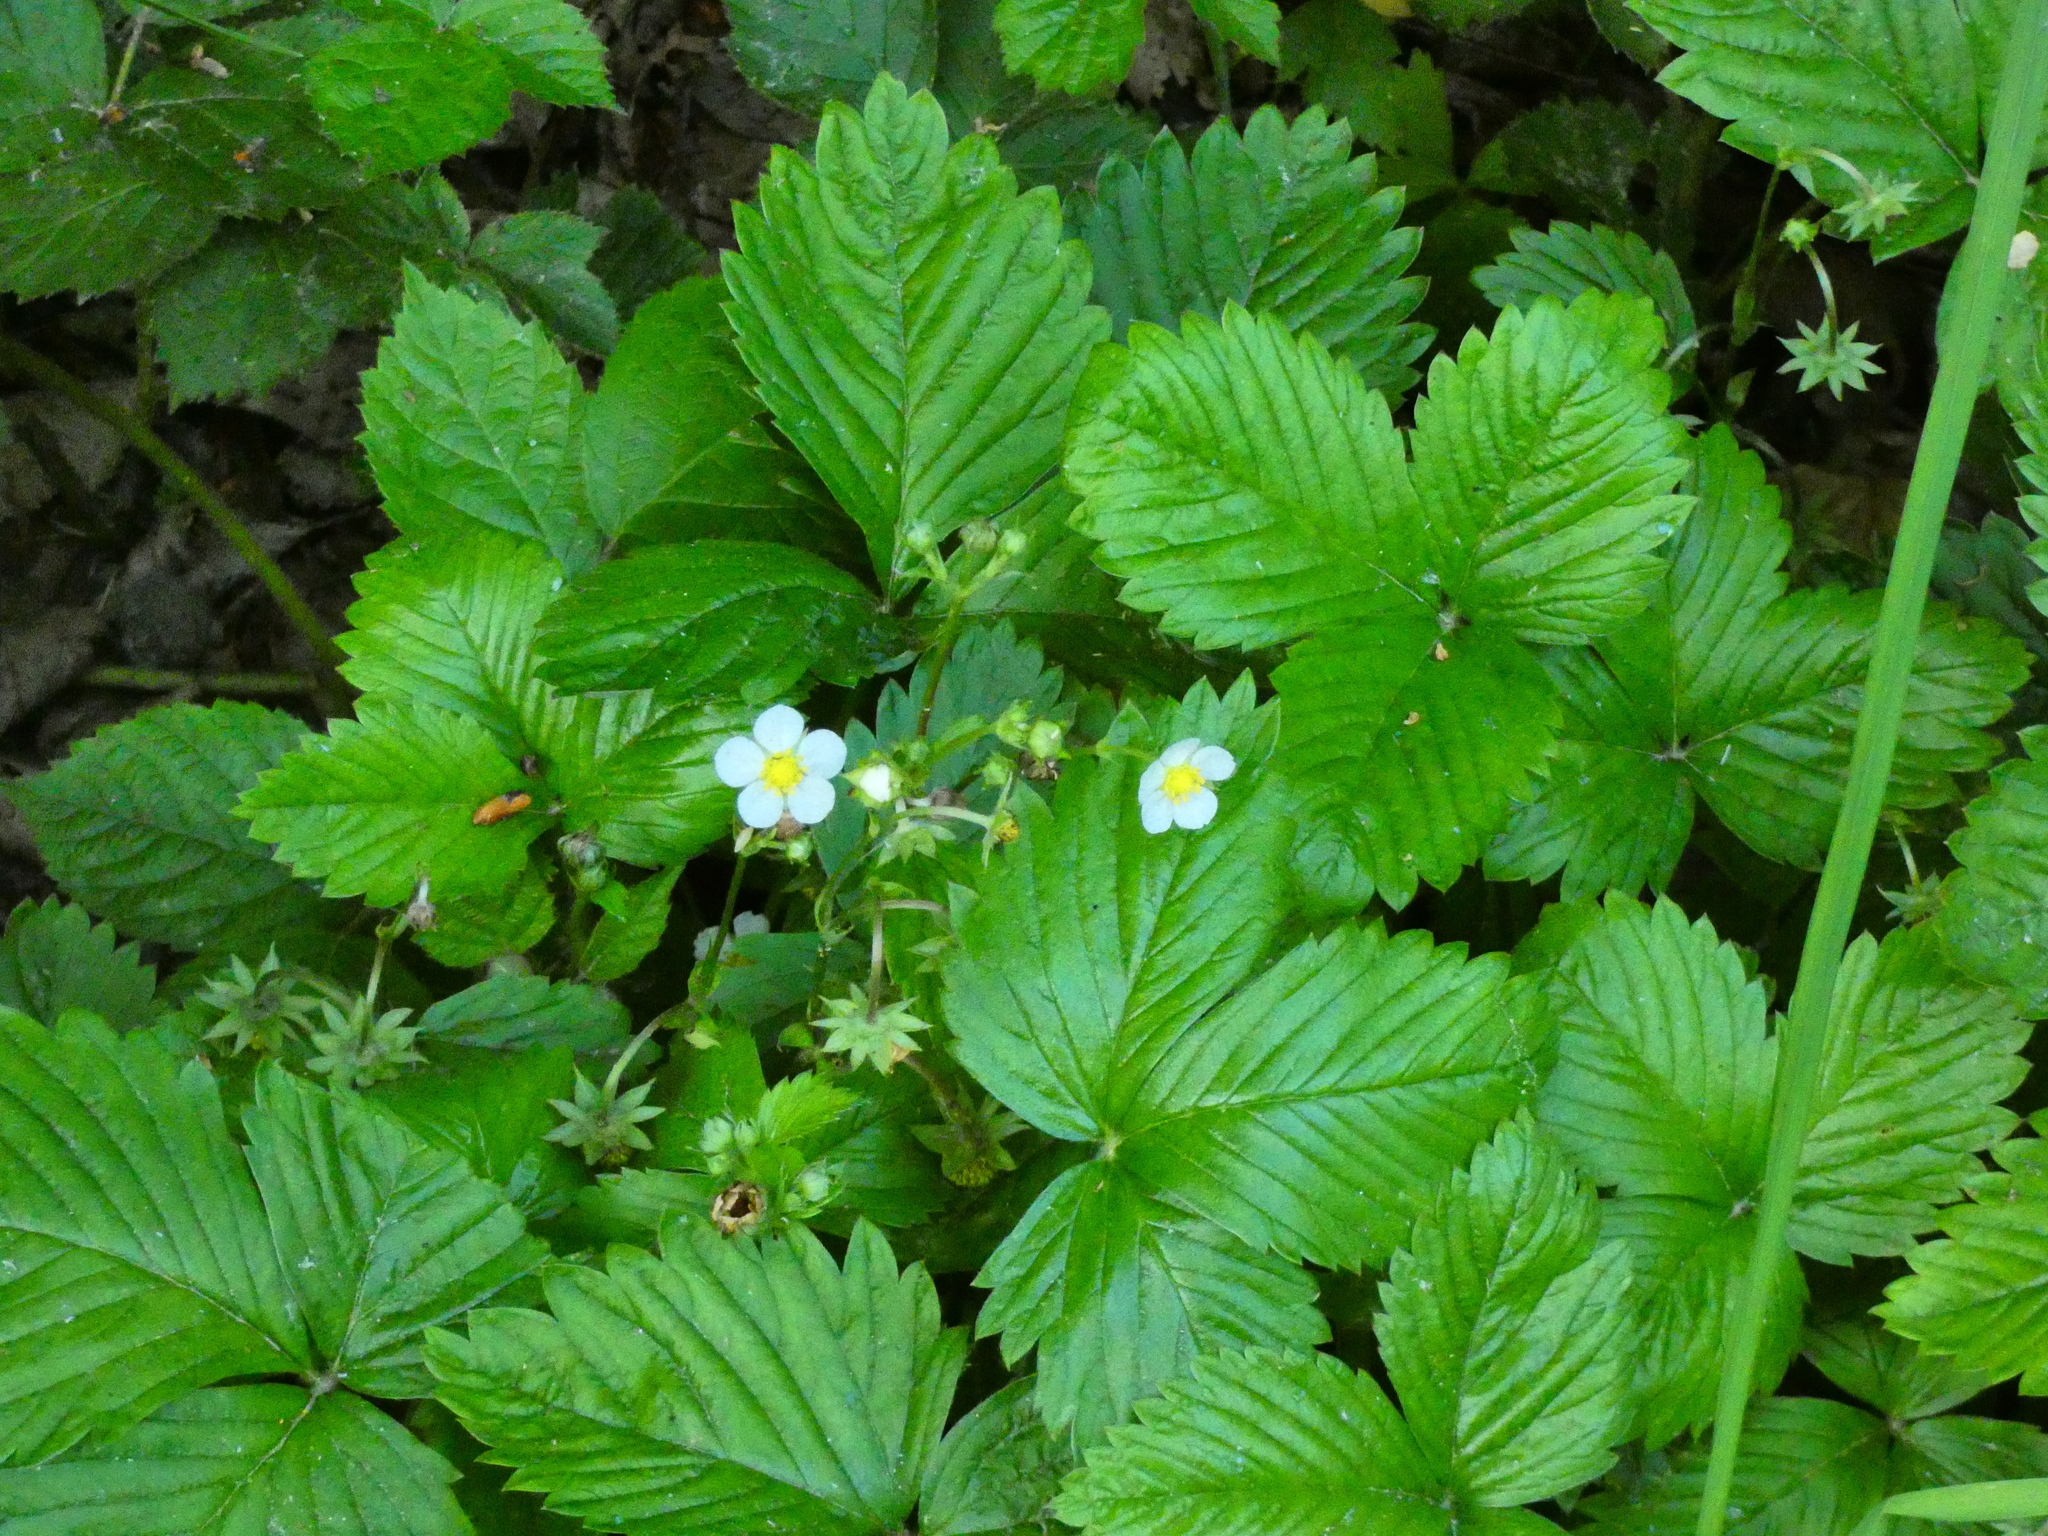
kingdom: Plantae
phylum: Tracheophyta
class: Magnoliopsida
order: Rosales
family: Rosaceae
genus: Fragaria
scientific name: Fragaria vesca
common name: Wild strawberry
